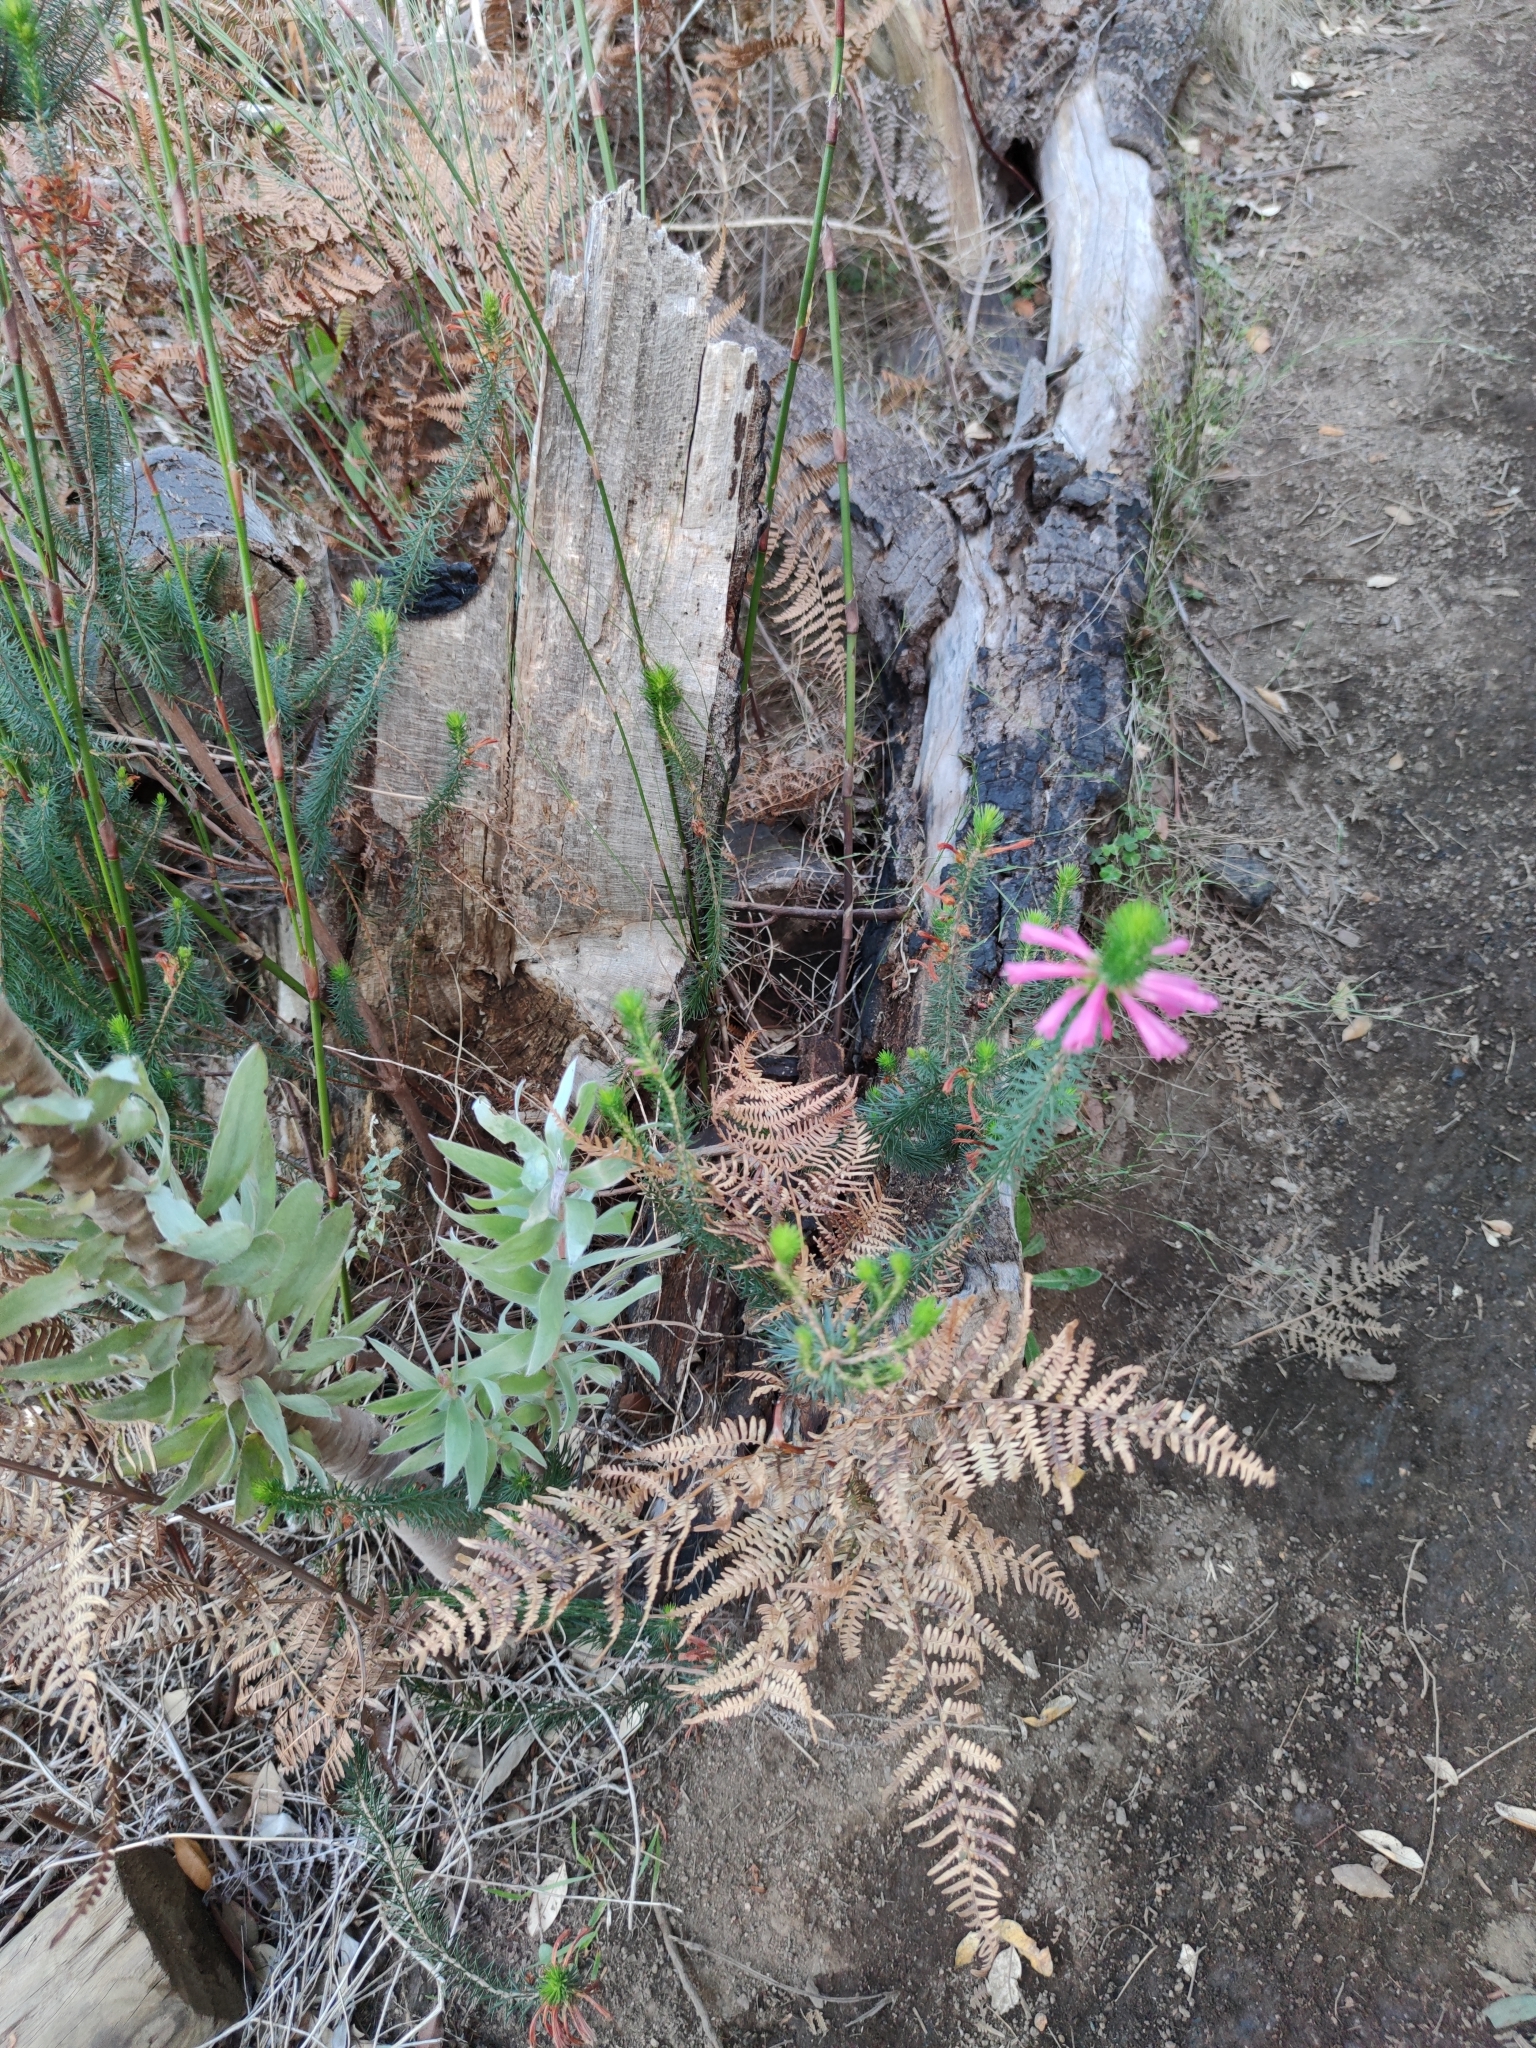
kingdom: Plantae
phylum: Tracheophyta
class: Magnoliopsida
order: Ericales
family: Ericaceae
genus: Erica
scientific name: Erica abietina
